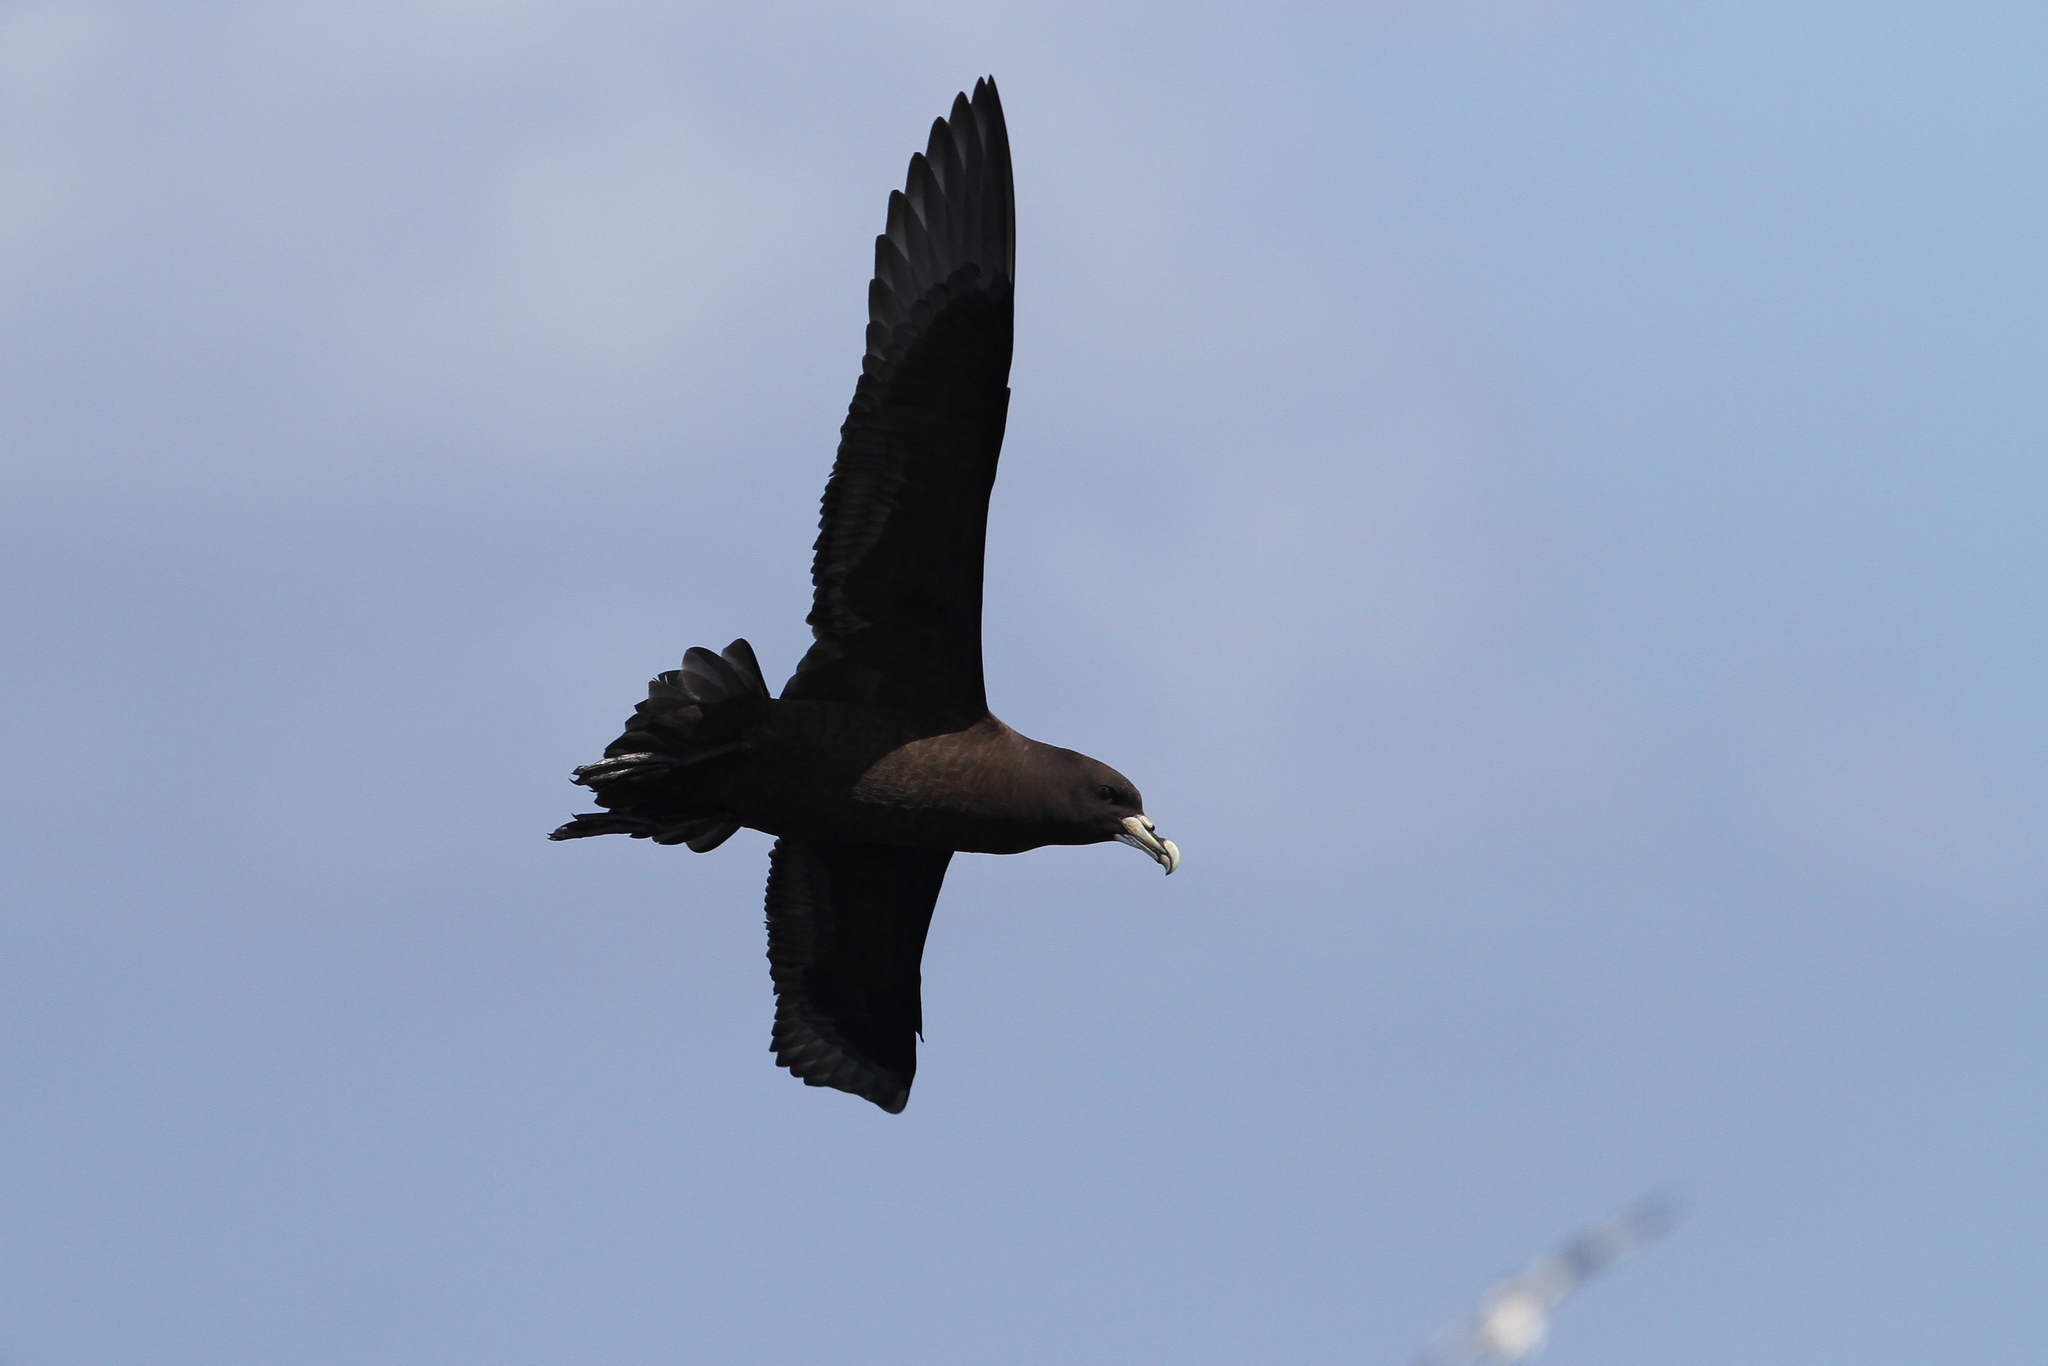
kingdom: Animalia
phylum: Chordata
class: Aves
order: Procellariiformes
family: Procellariidae
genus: Procellaria
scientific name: Procellaria aequinoctialis
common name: White-chinned petrel
